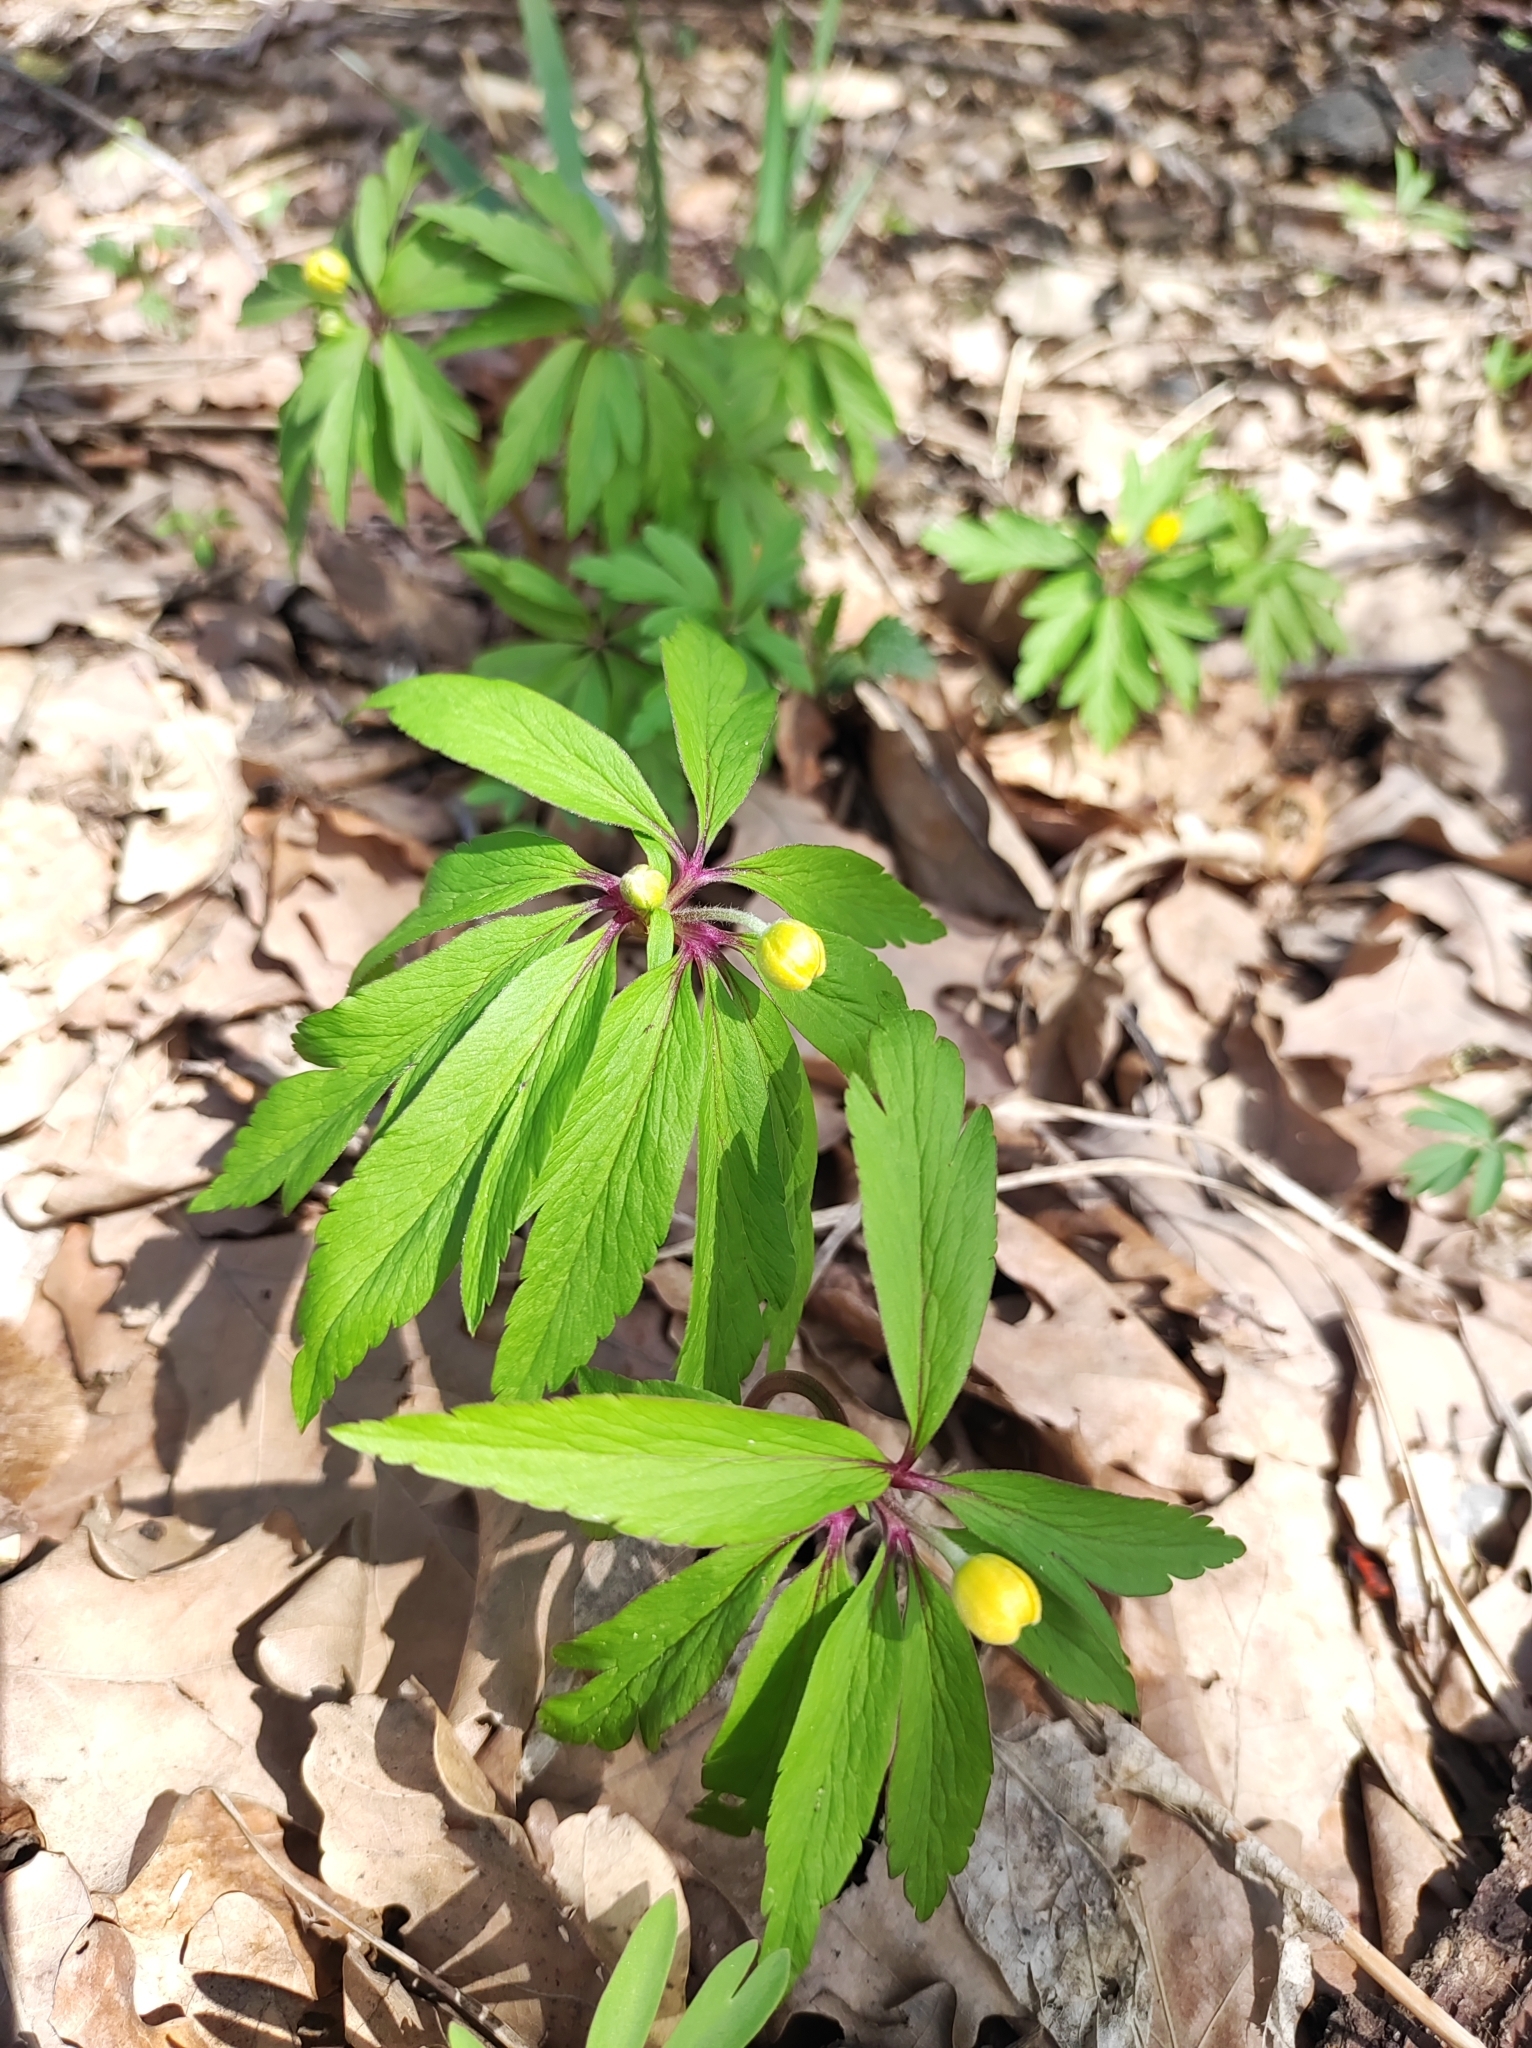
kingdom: Plantae
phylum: Tracheophyta
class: Magnoliopsida
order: Ranunculales
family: Ranunculaceae
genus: Anemone
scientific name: Anemone ranunculoides
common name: Yellow anemone
